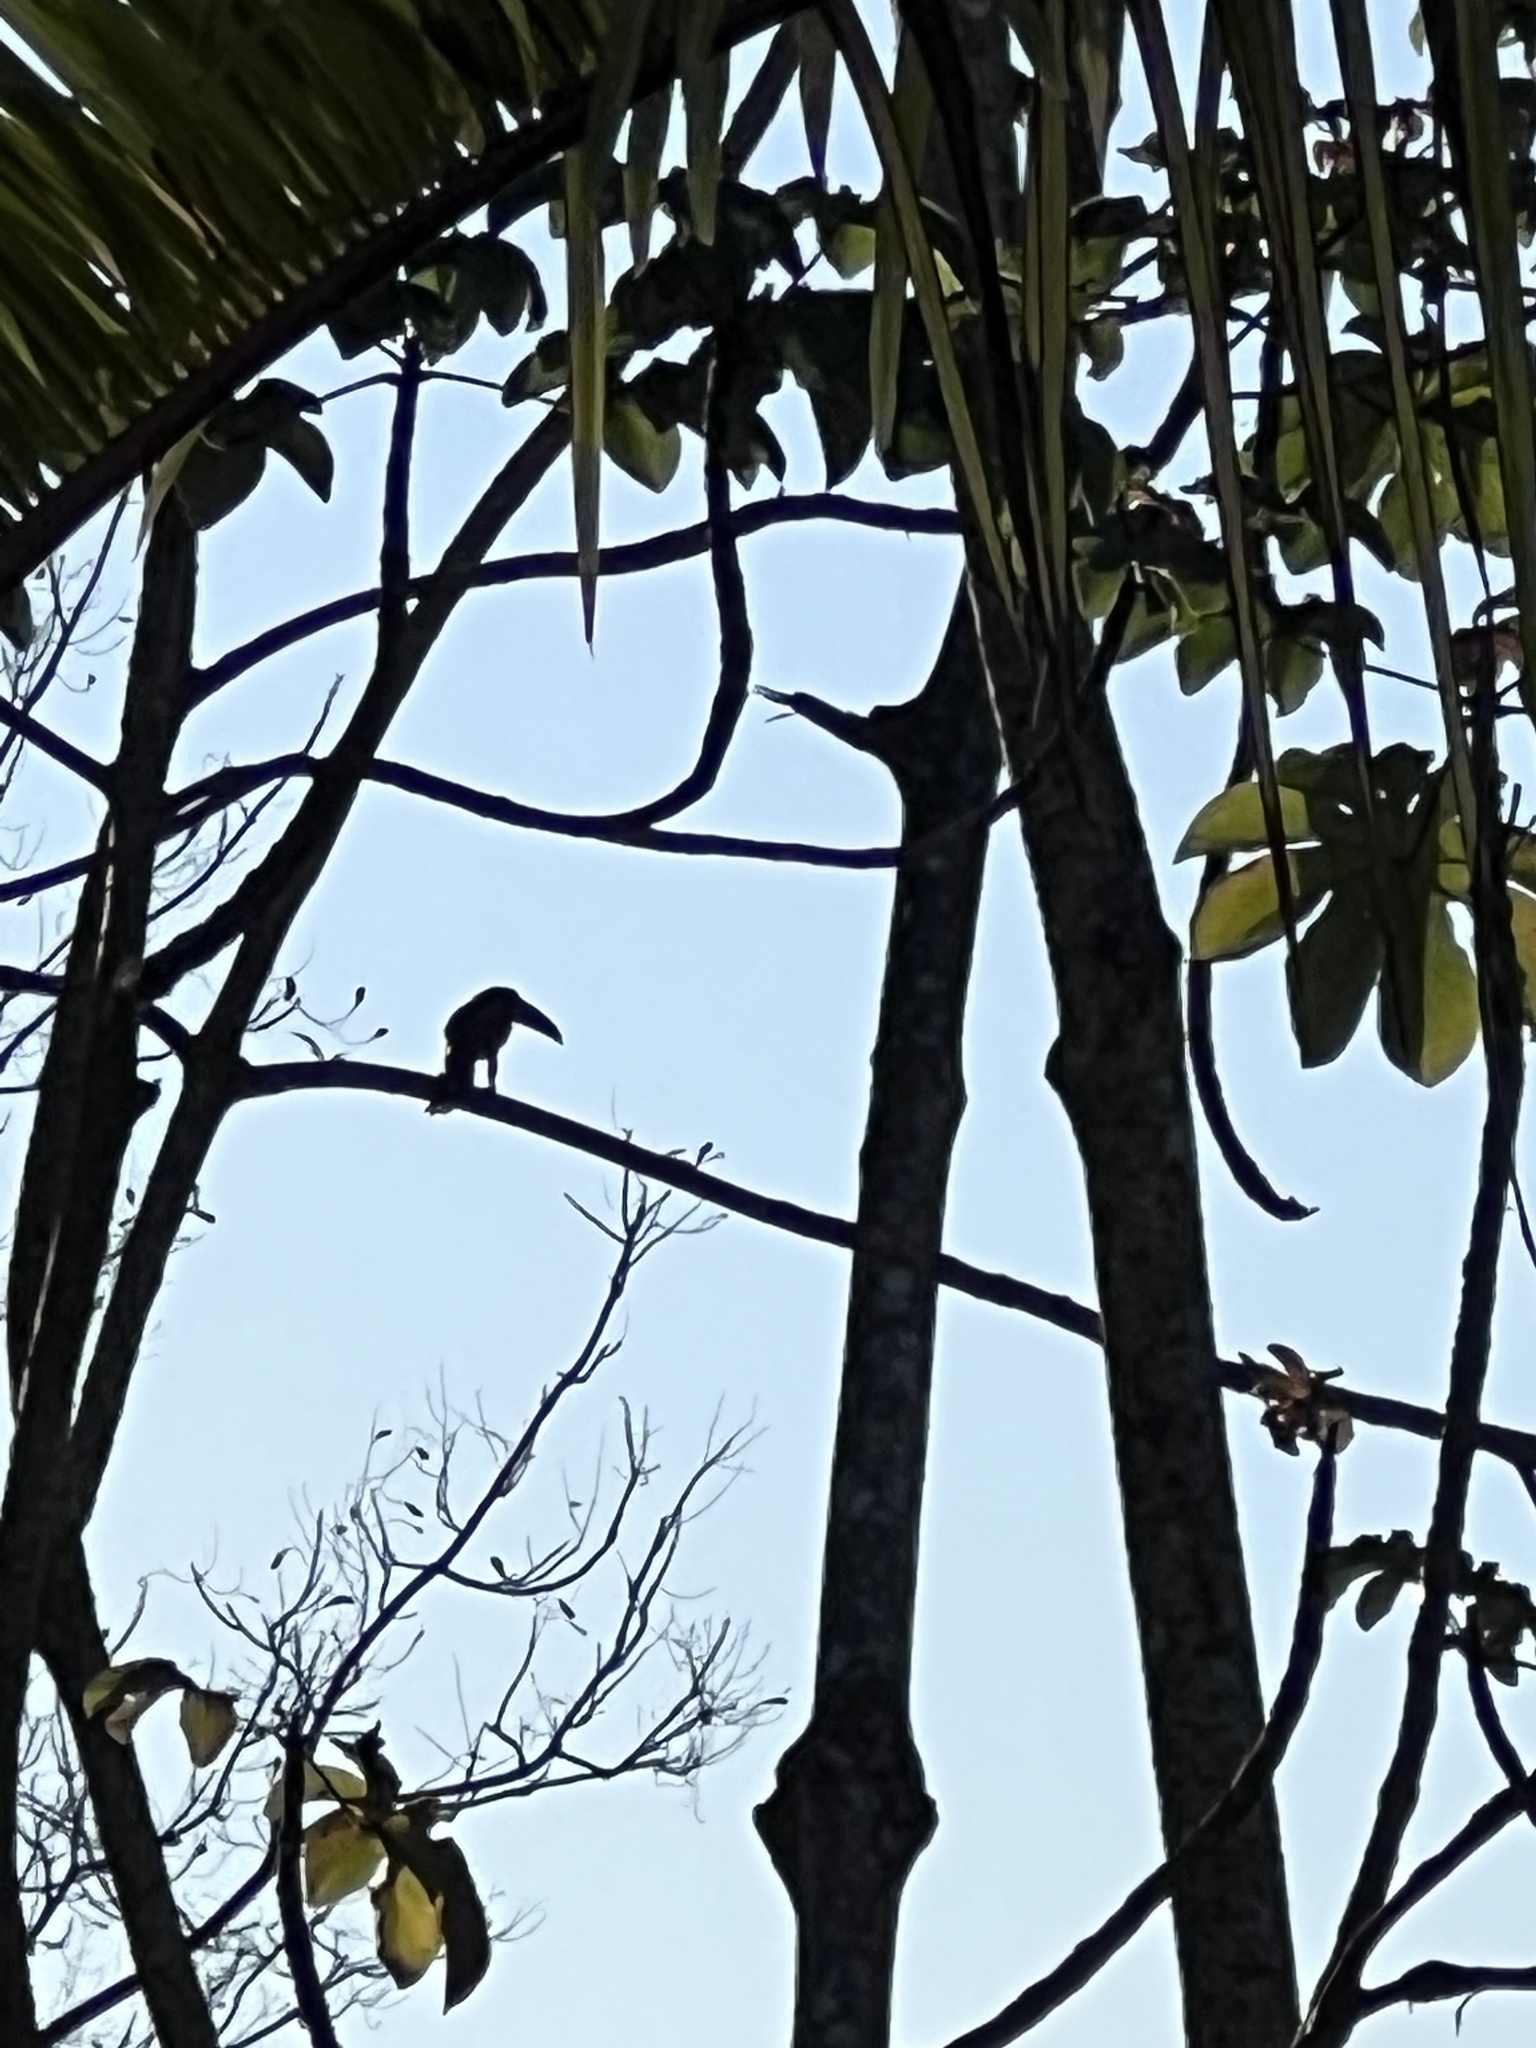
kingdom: Animalia
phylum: Chordata
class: Aves
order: Piciformes
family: Ramphastidae
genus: Pteroglossus
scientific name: Pteroglossus torquatus
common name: Collared aracari
